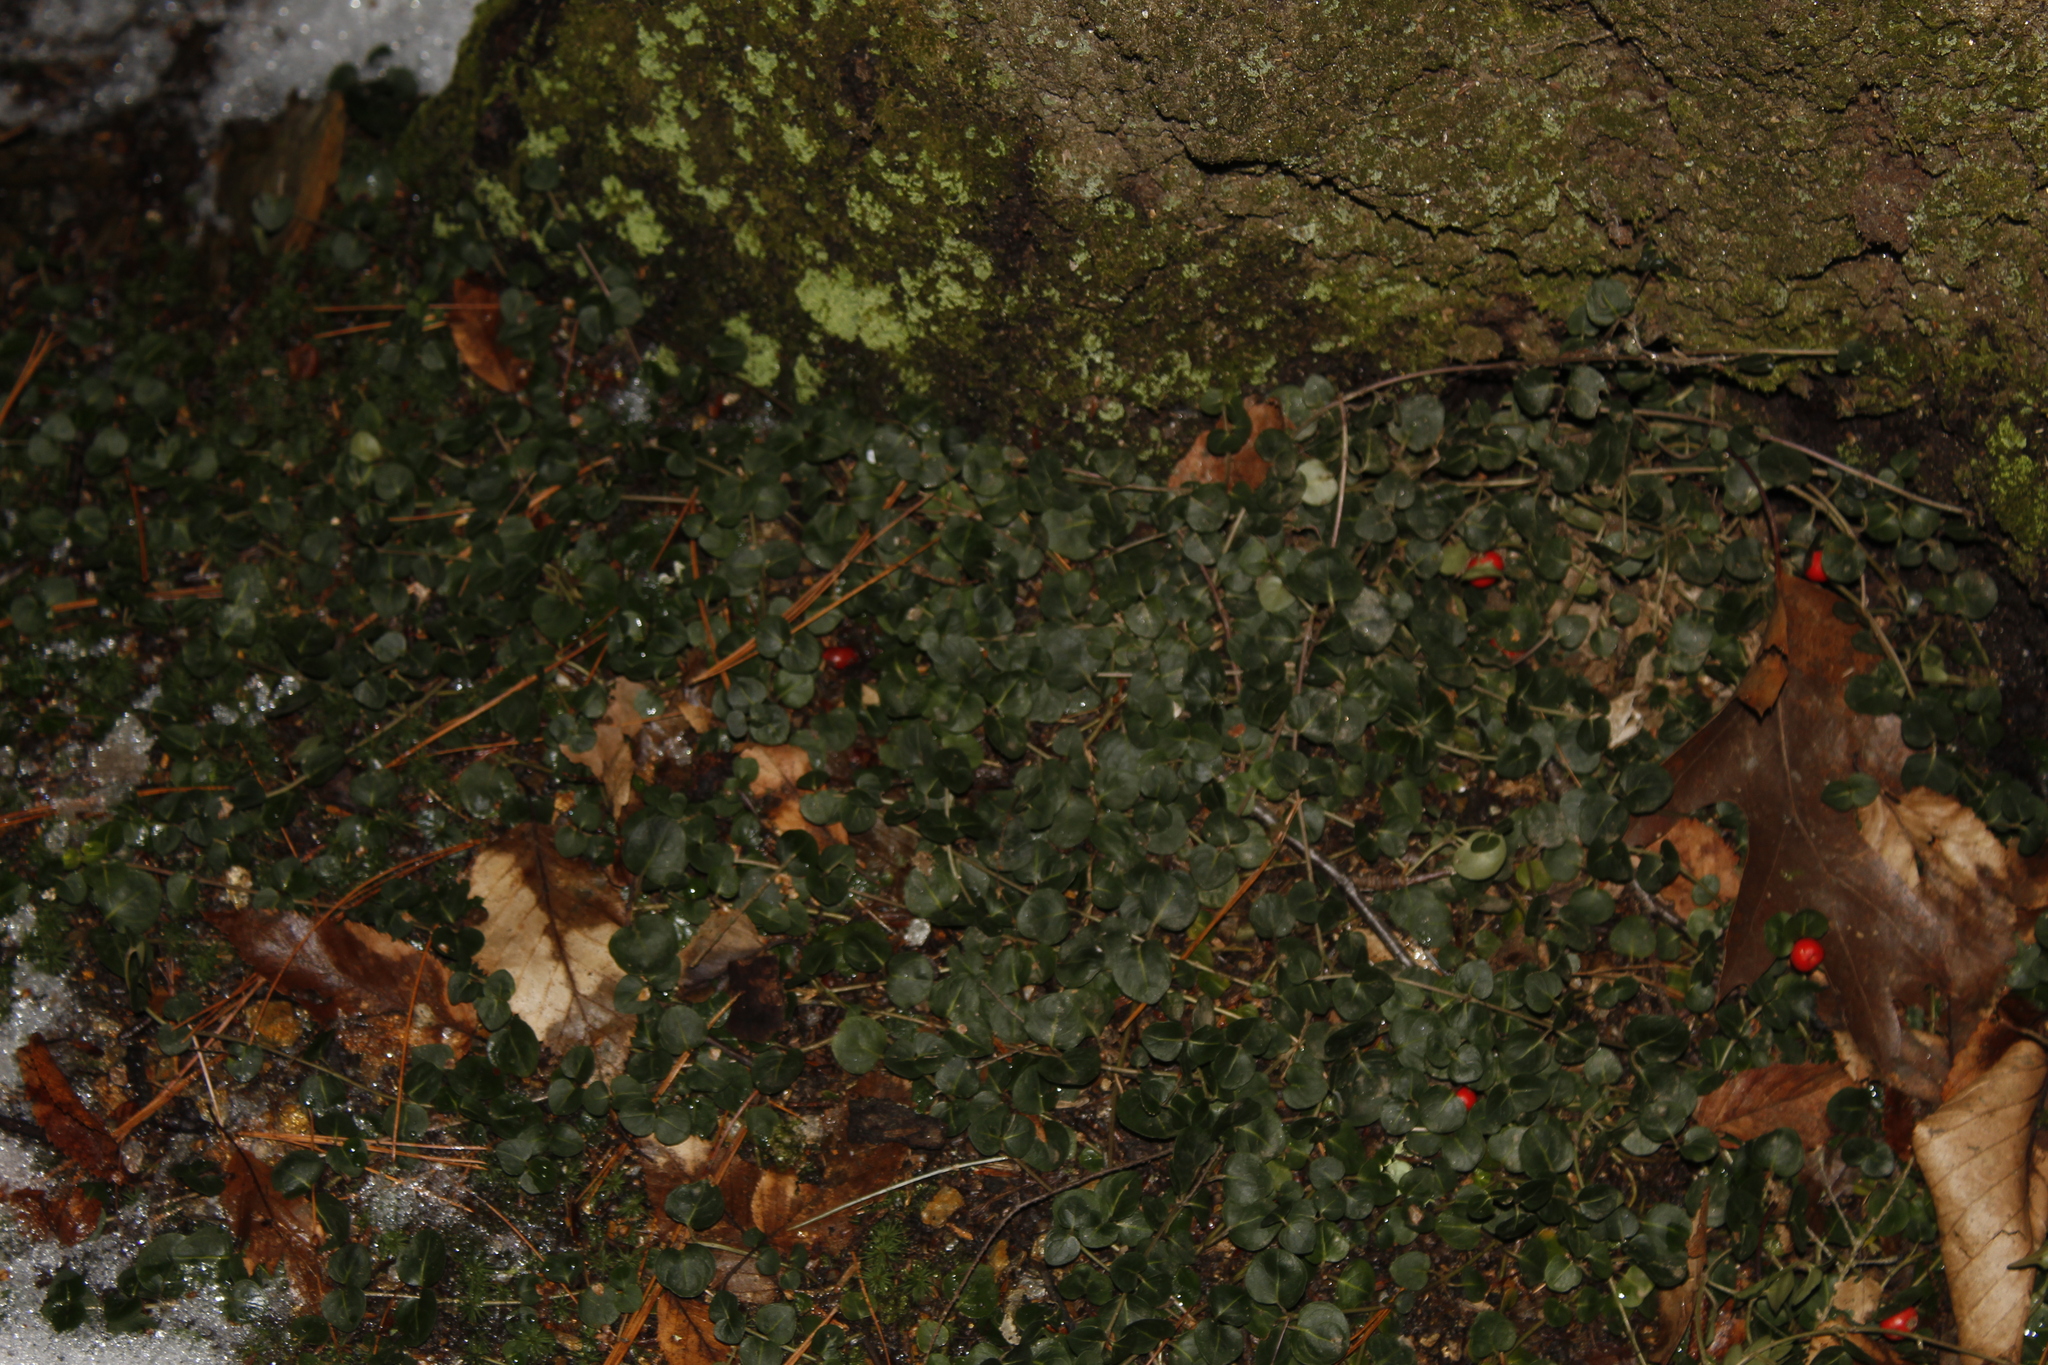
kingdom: Plantae
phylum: Tracheophyta
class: Magnoliopsida
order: Gentianales
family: Rubiaceae
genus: Mitchella
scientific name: Mitchella repens
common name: Partridge-berry
